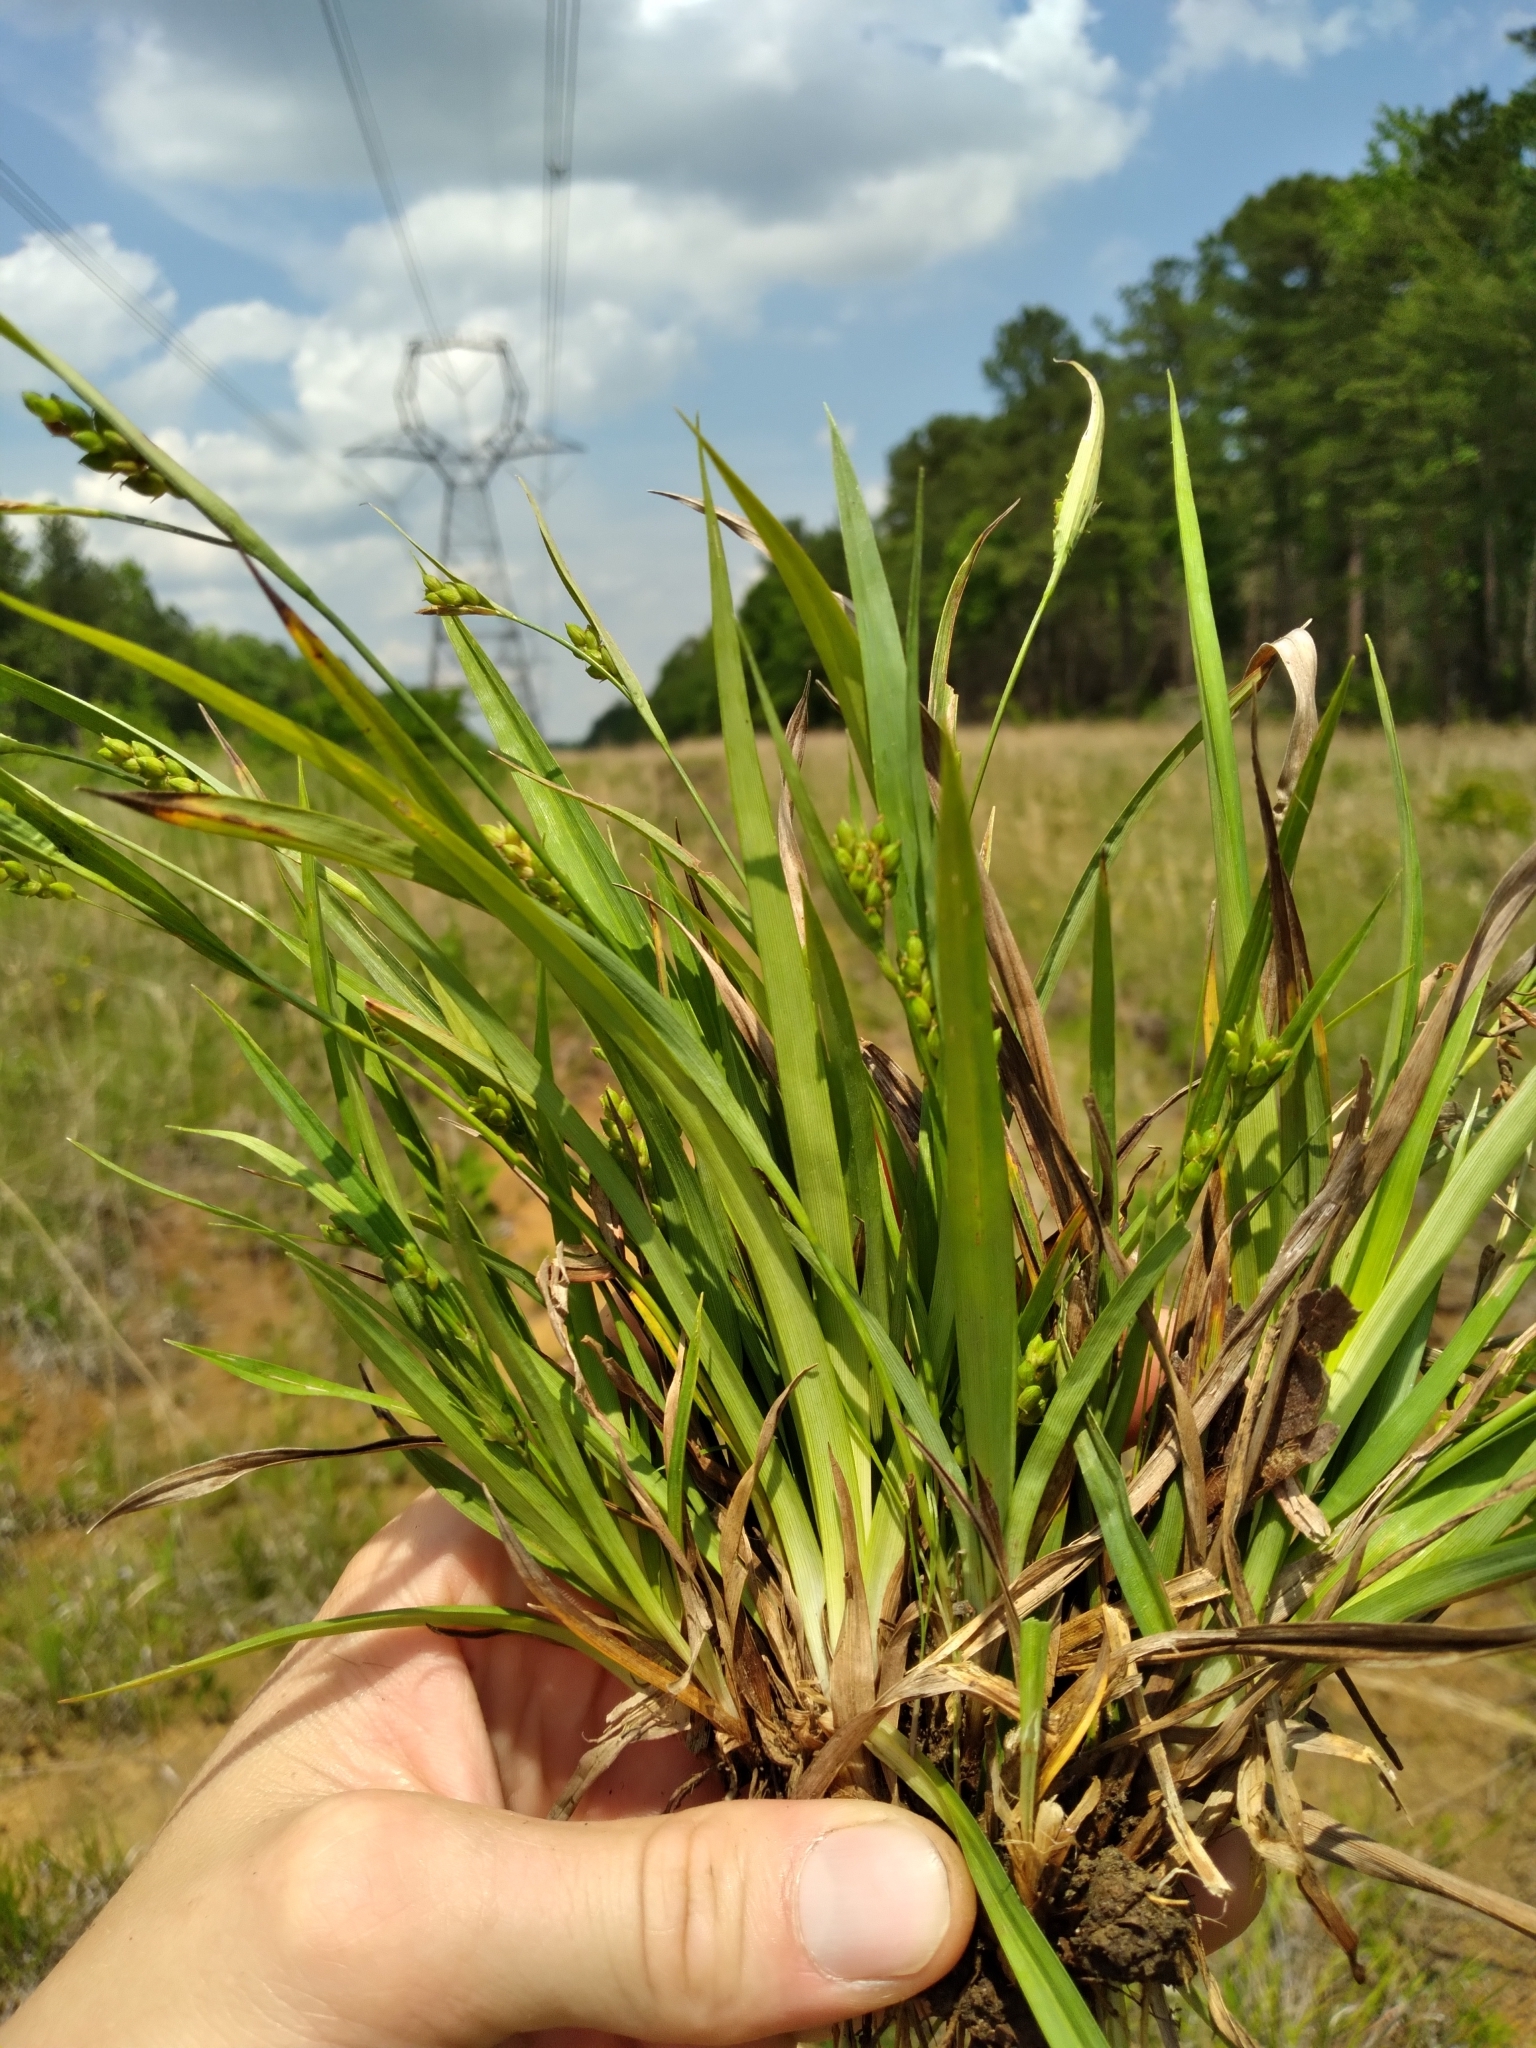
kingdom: Plantae
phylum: Tracheophyta
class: Liliopsida
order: Poales
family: Cyperaceae
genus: Carex
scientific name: Carex glaucodea
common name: Blue sedge
